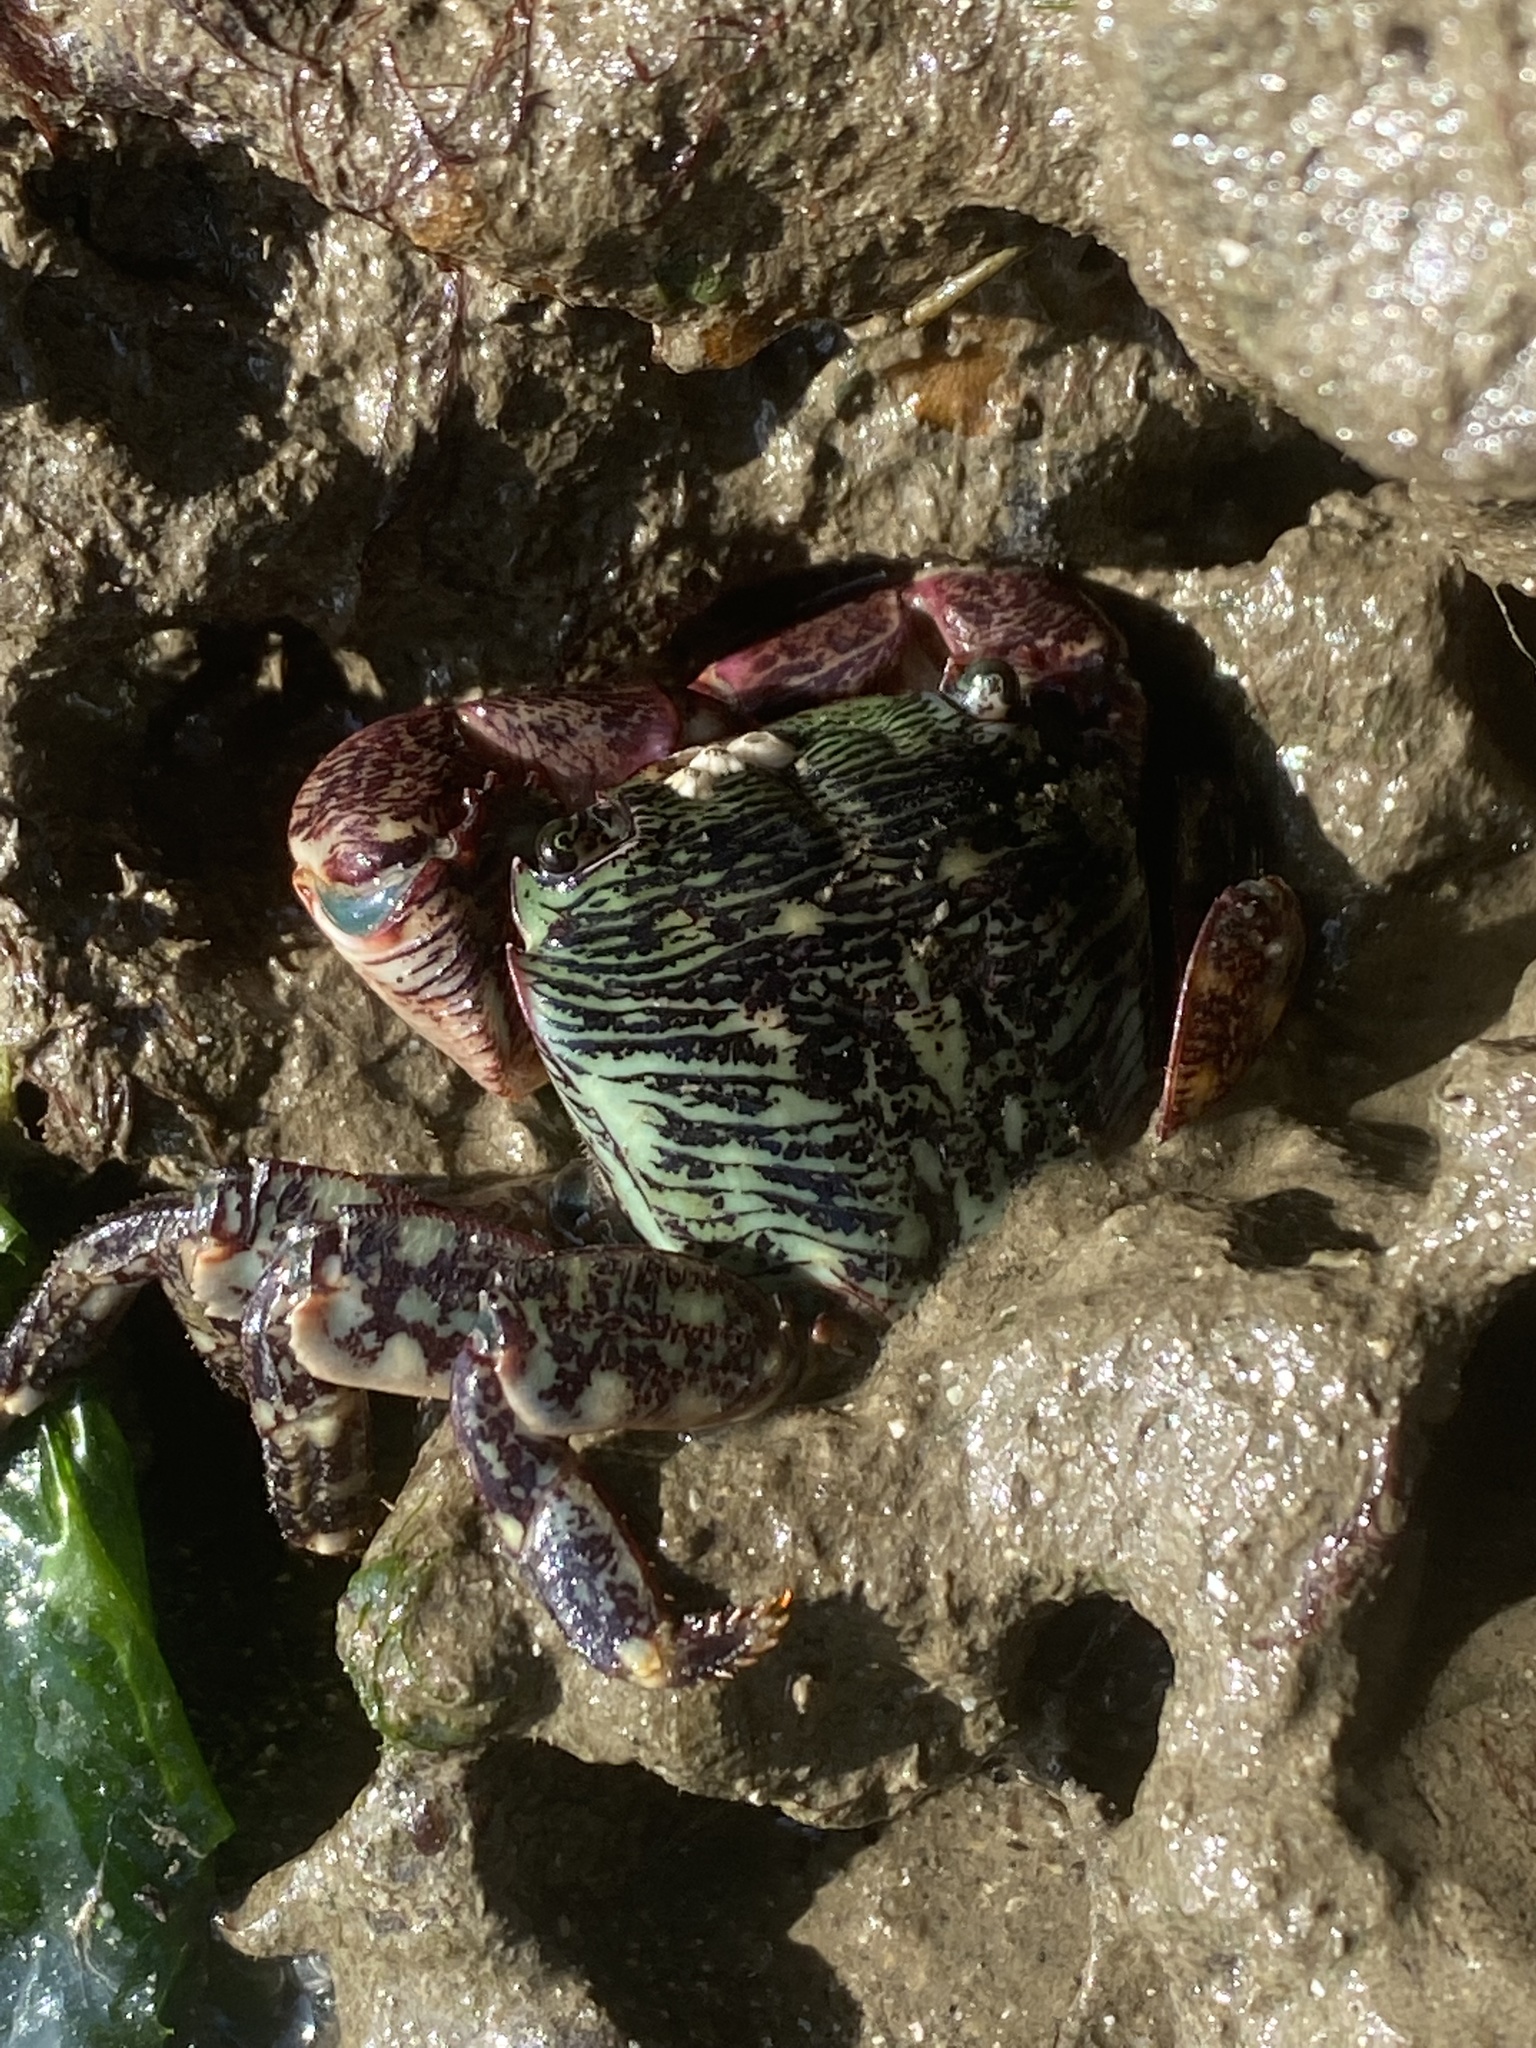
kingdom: Animalia
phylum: Arthropoda
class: Malacostraca
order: Decapoda
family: Grapsidae
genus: Pachygrapsus
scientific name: Pachygrapsus crassipes
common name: Striped shore crab
